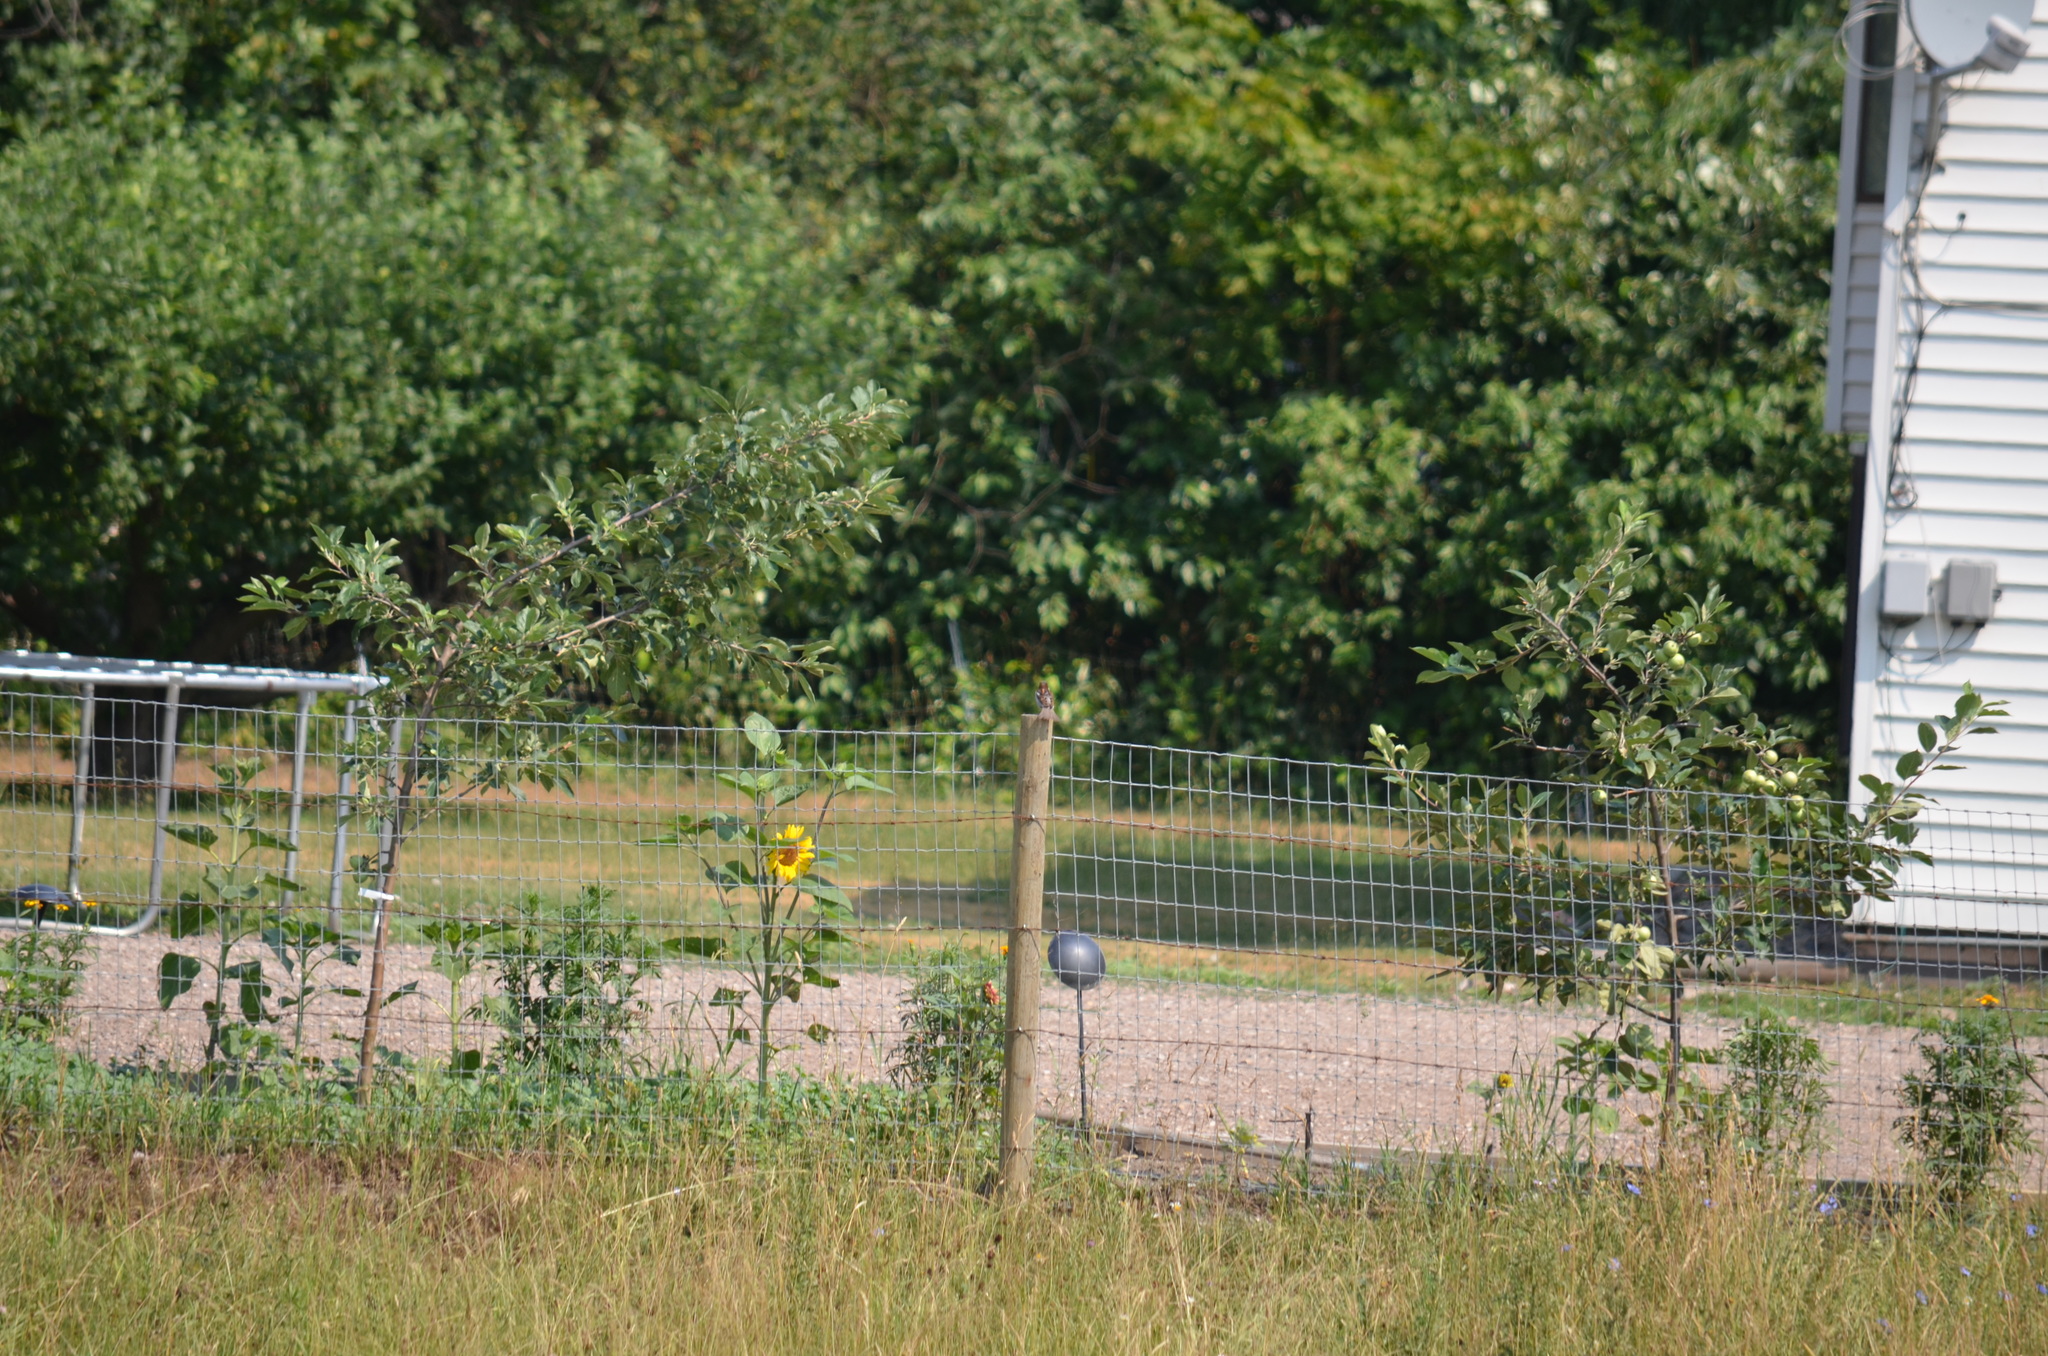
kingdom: Animalia
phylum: Chordata
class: Aves
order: Passeriformes
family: Passeridae
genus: Passer
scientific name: Passer domesticus
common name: House sparrow
